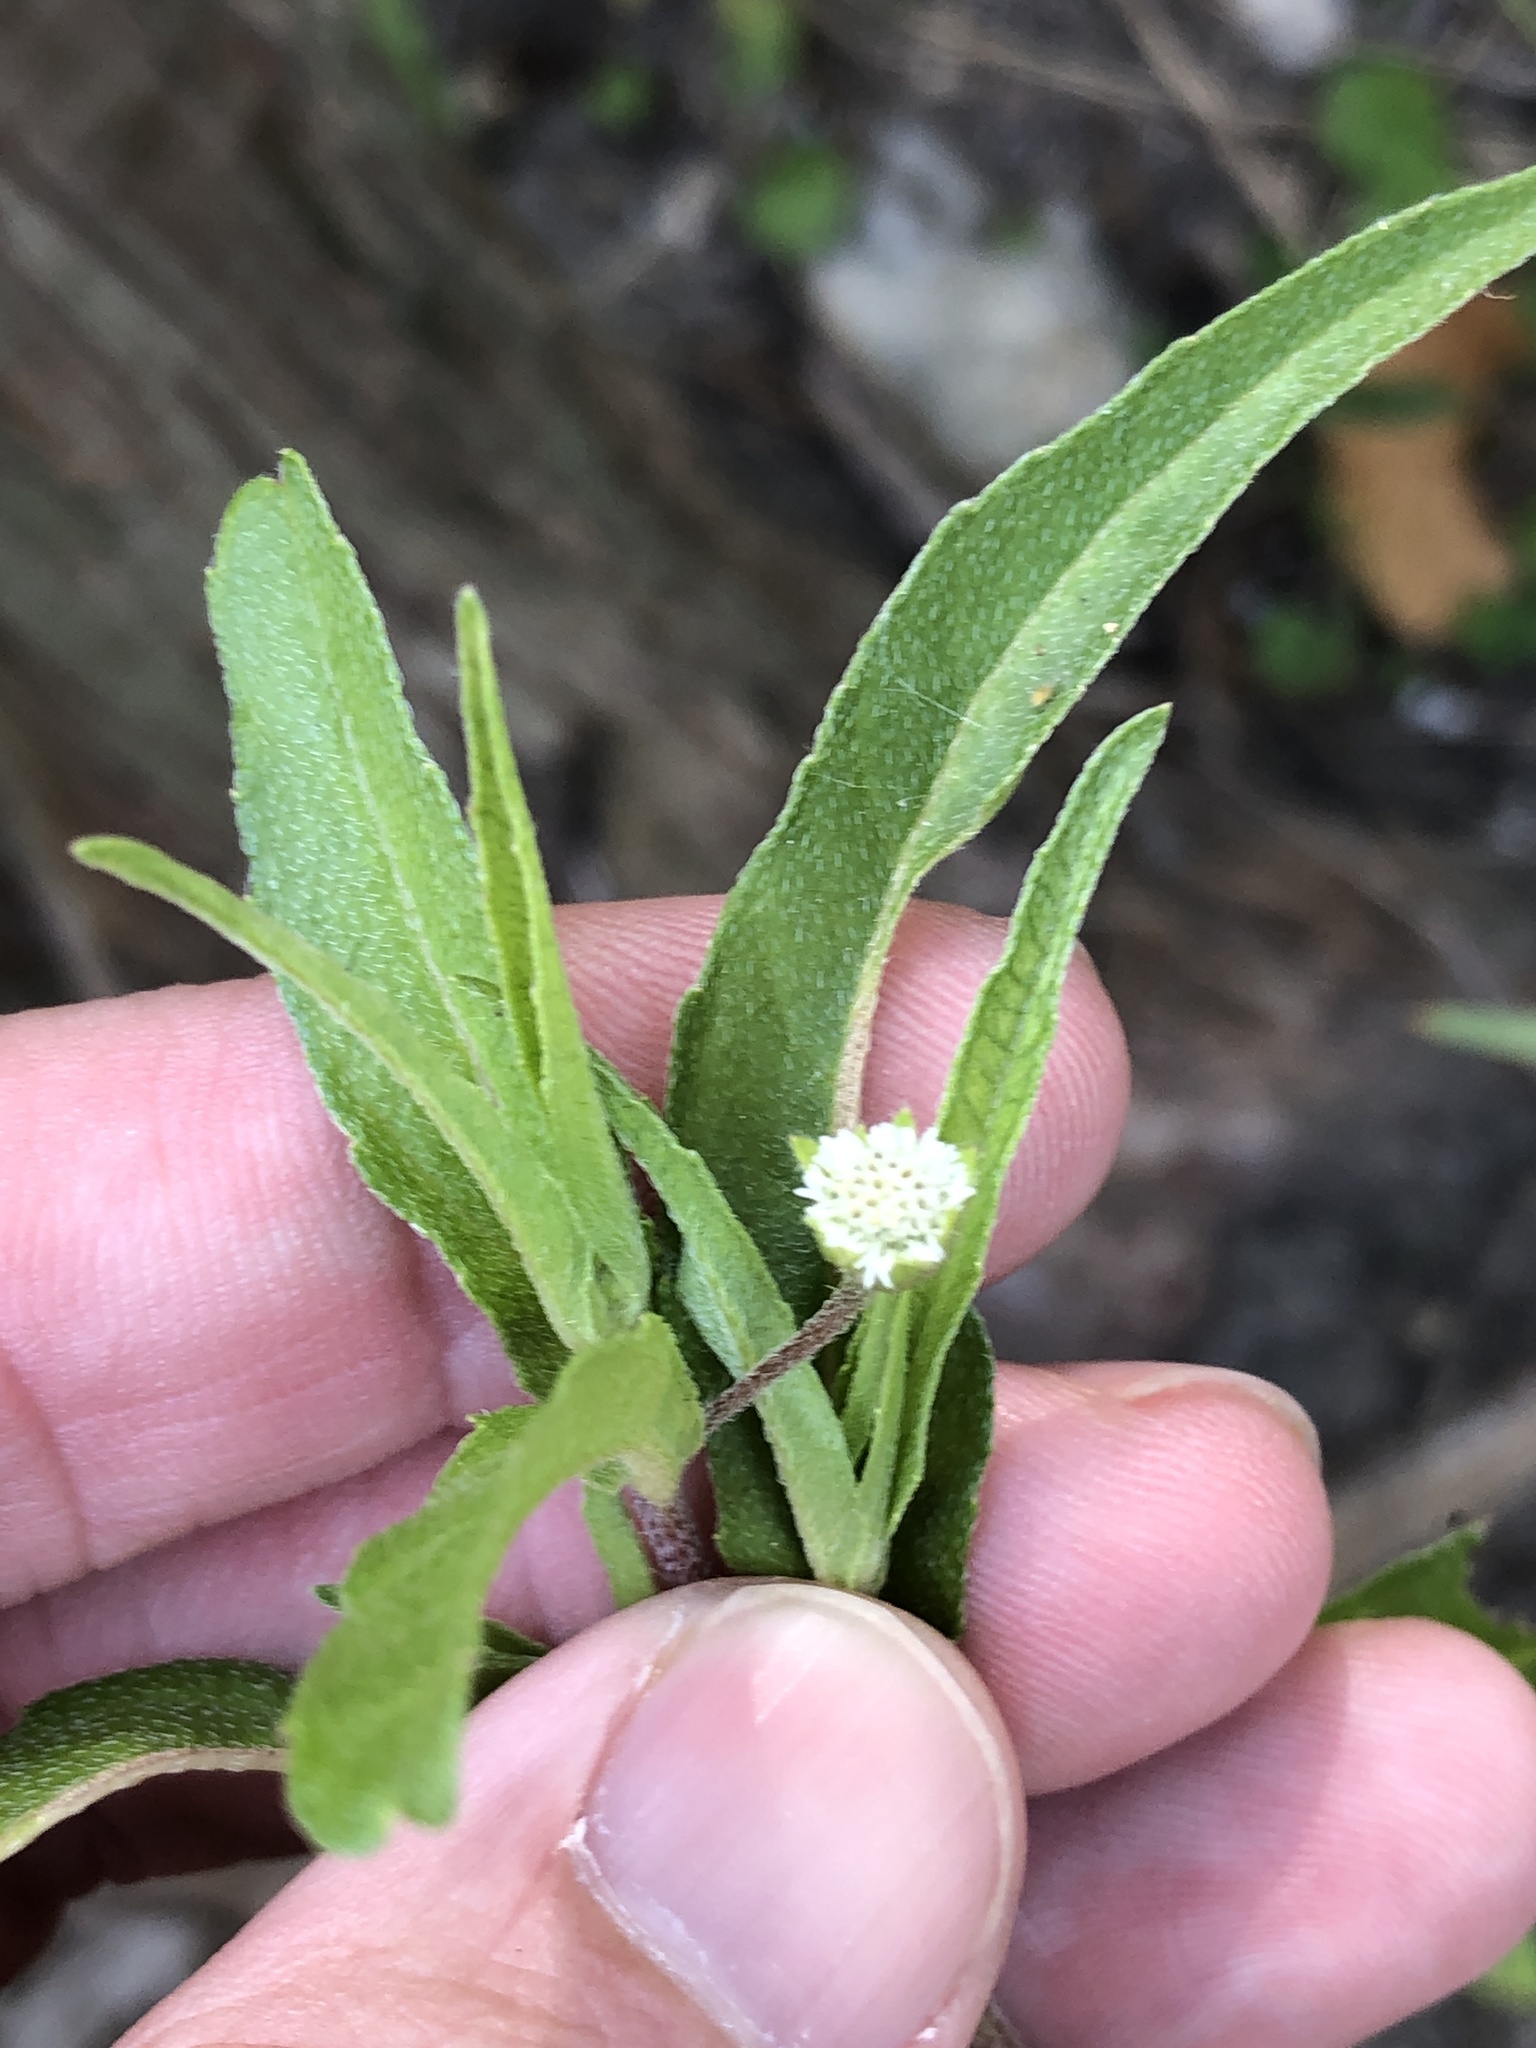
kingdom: Plantae
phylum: Tracheophyta
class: Magnoliopsida
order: Asterales
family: Asteraceae
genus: Eclipta
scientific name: Eclipta prostrata
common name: False daisy
